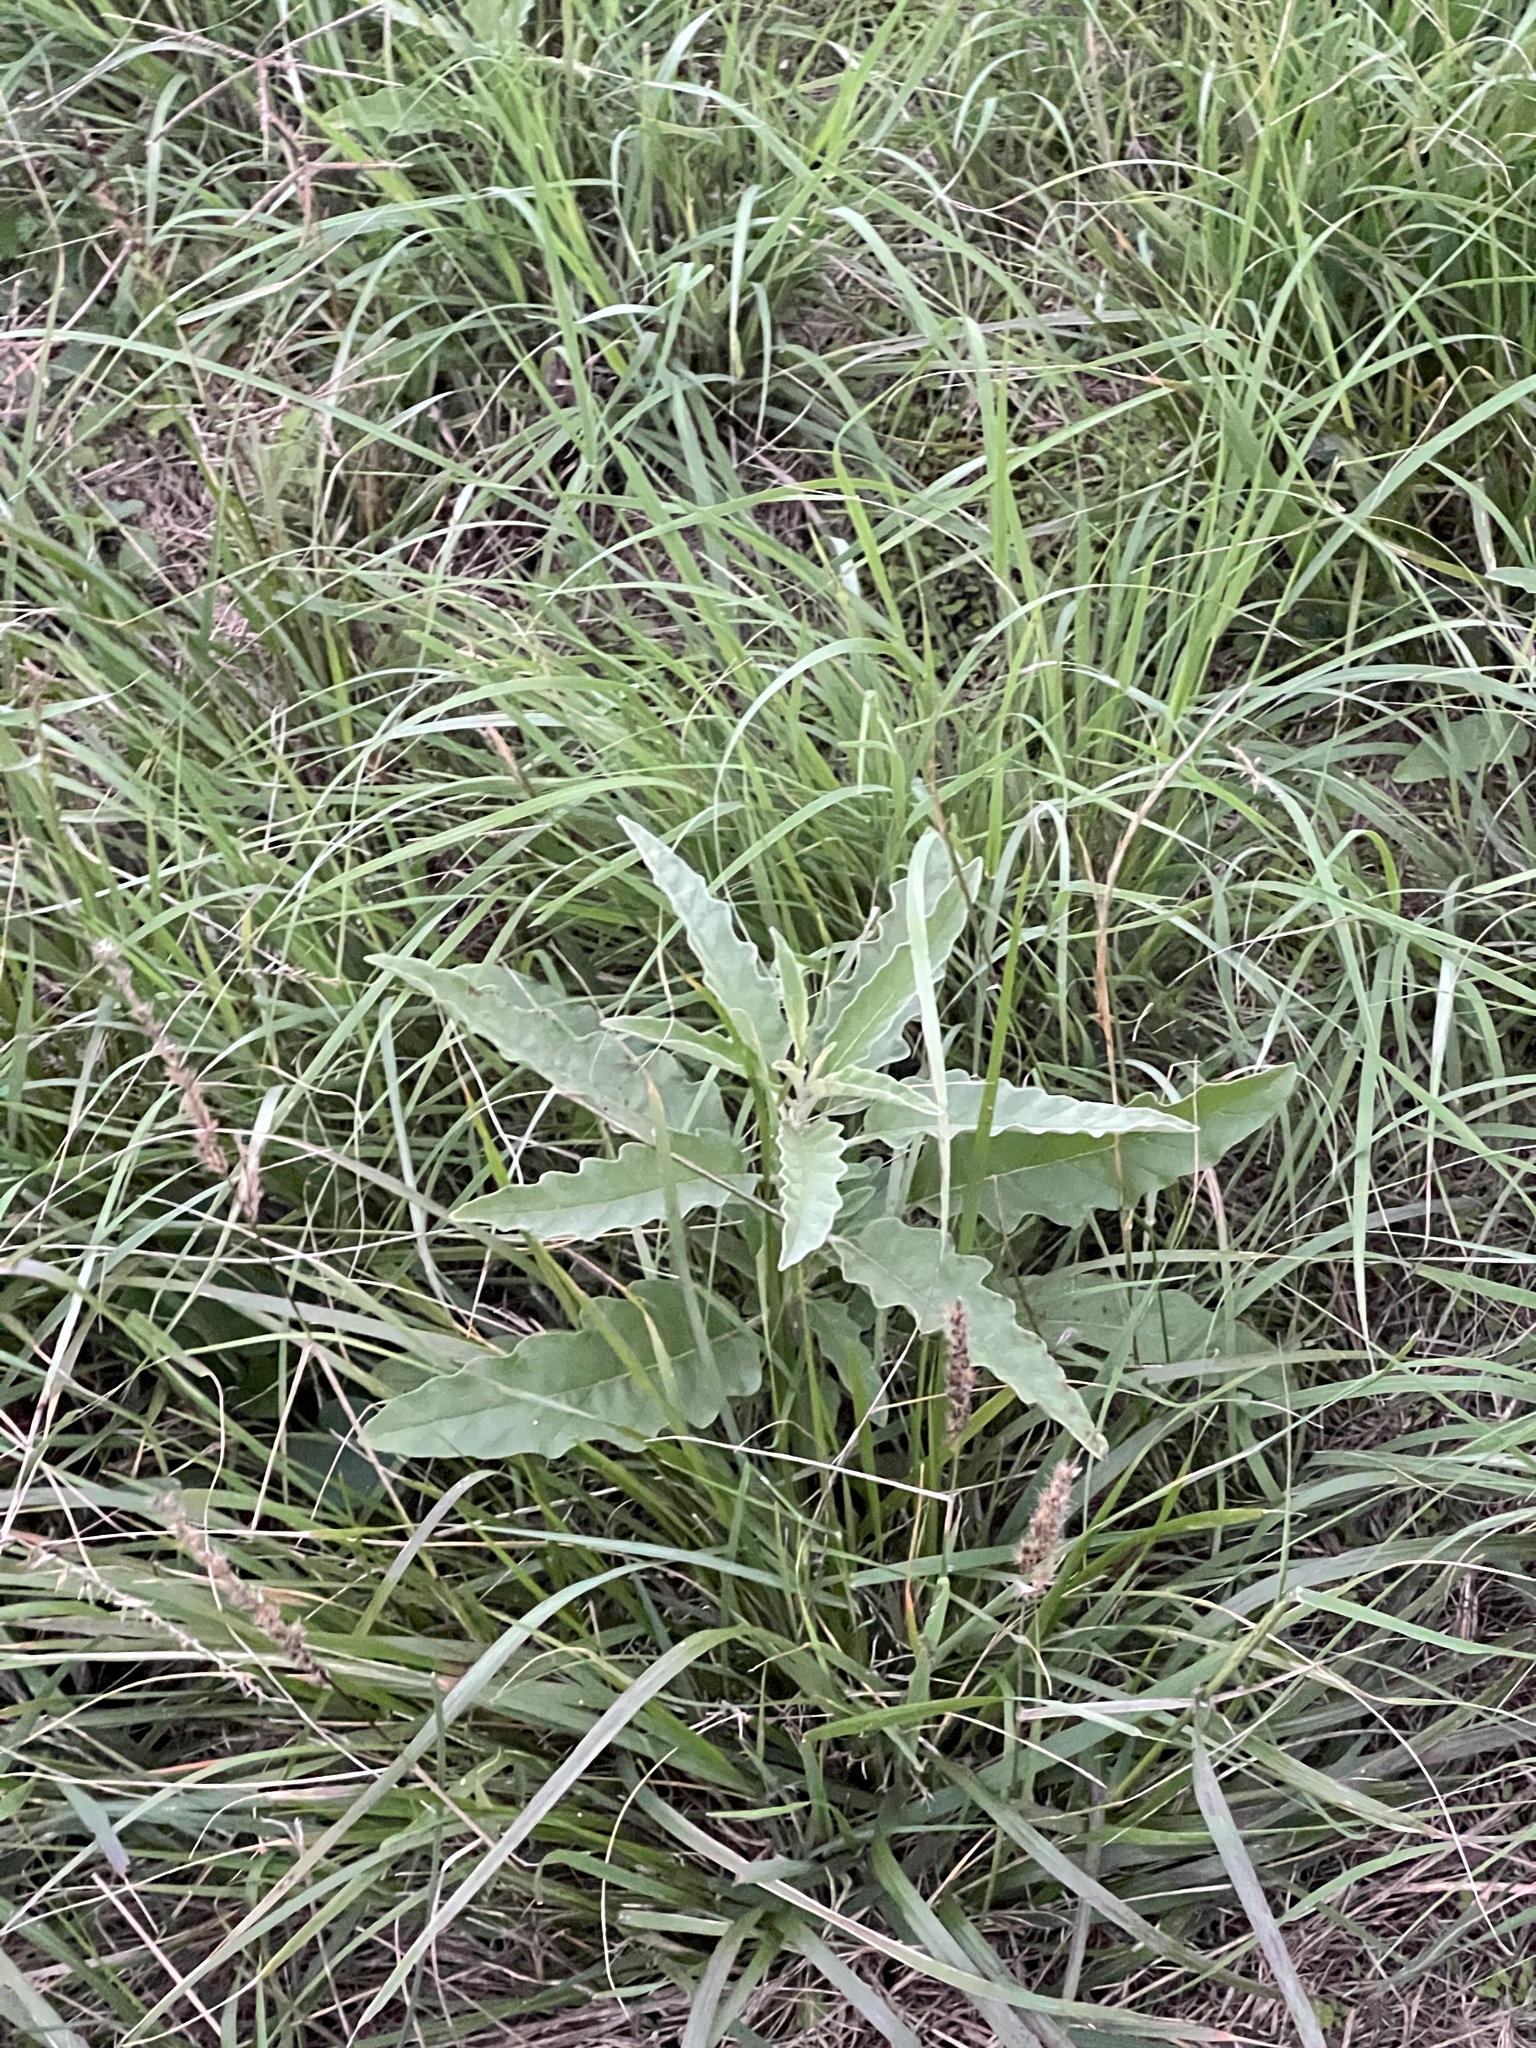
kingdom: Plantae
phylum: Tracheophyta
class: Magnoliopsida
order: Solanales
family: Solanaceae
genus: Solanum
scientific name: Solanum elaeagnifolium
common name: Silverleaf nightshade
